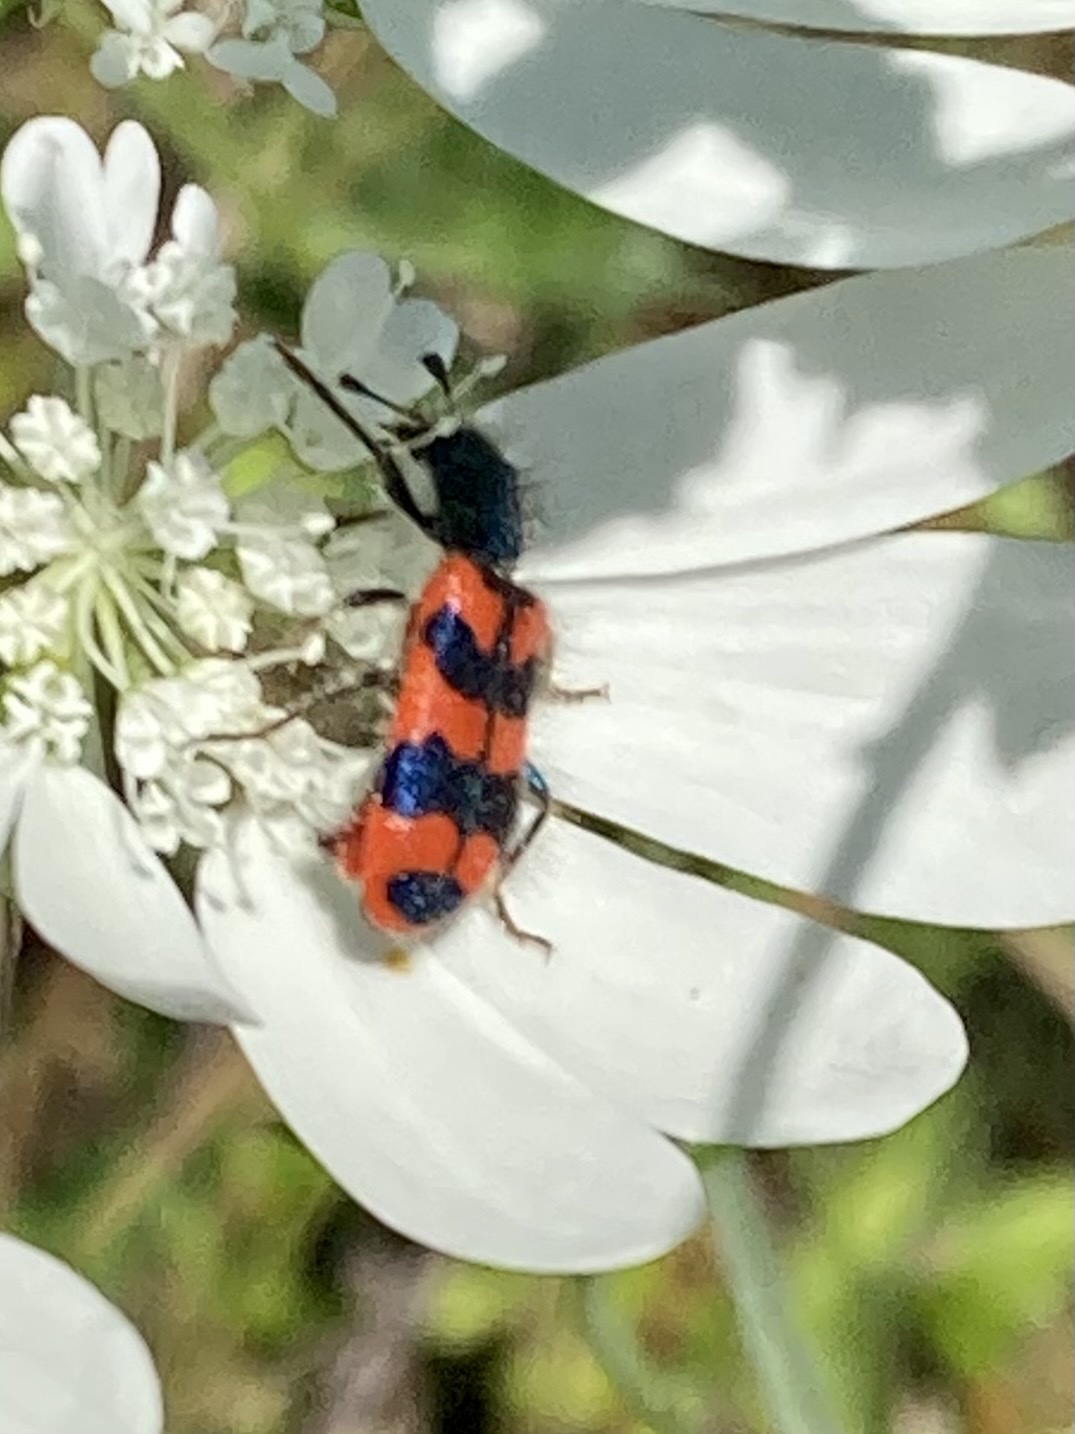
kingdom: Animalia
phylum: Arthropoda
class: Insecta
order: Coleoptera
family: Cleridae
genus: Trichodes
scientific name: Trichodes alvearius
